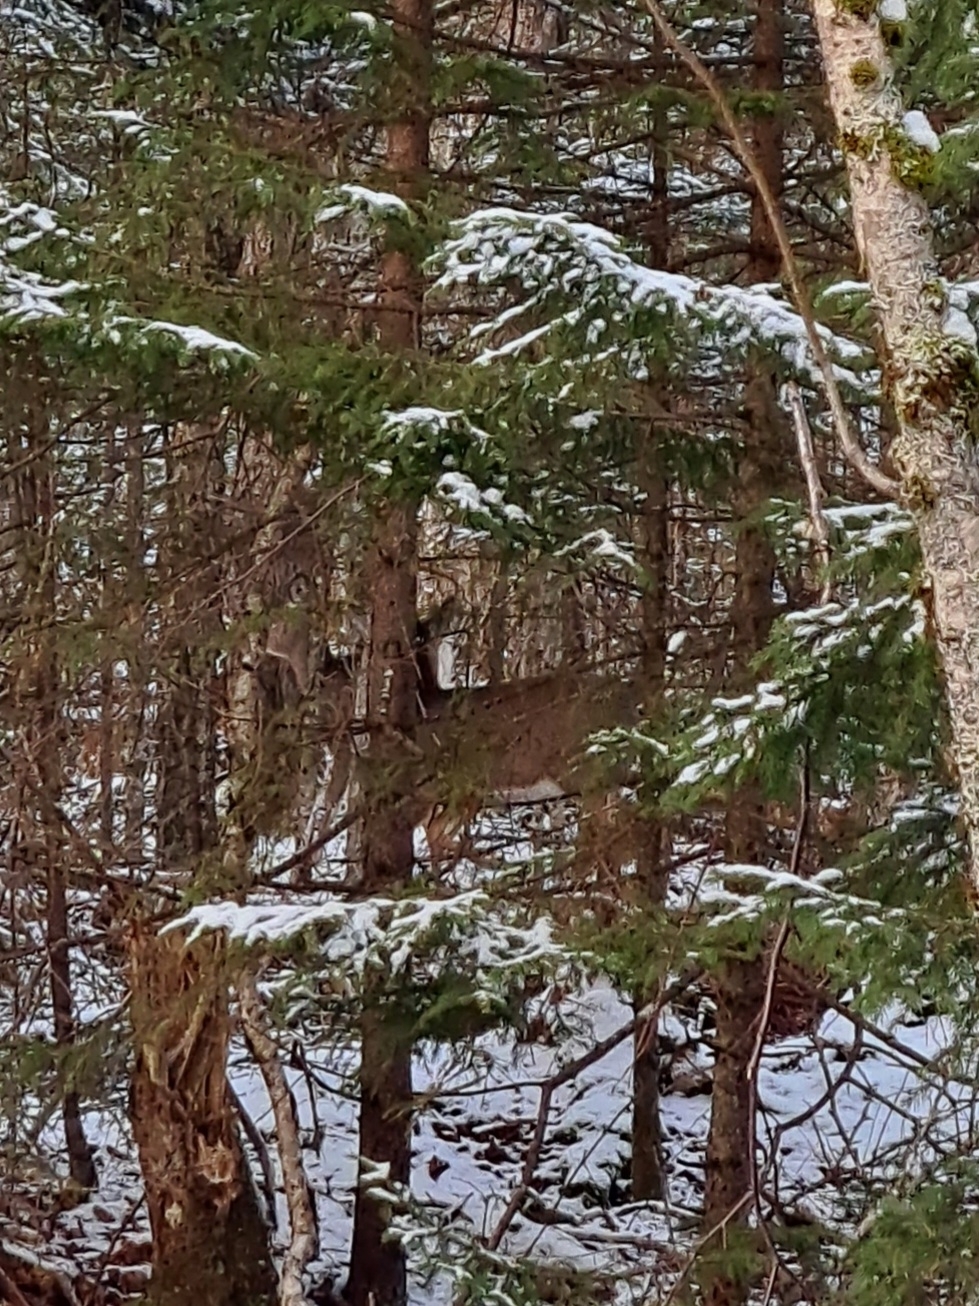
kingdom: Animalia
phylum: Chordata
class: Mammalia
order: Artiodactyla
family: Cervidae
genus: Odocoileus
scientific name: Odocoileus virginianus
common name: White-tailed deer
